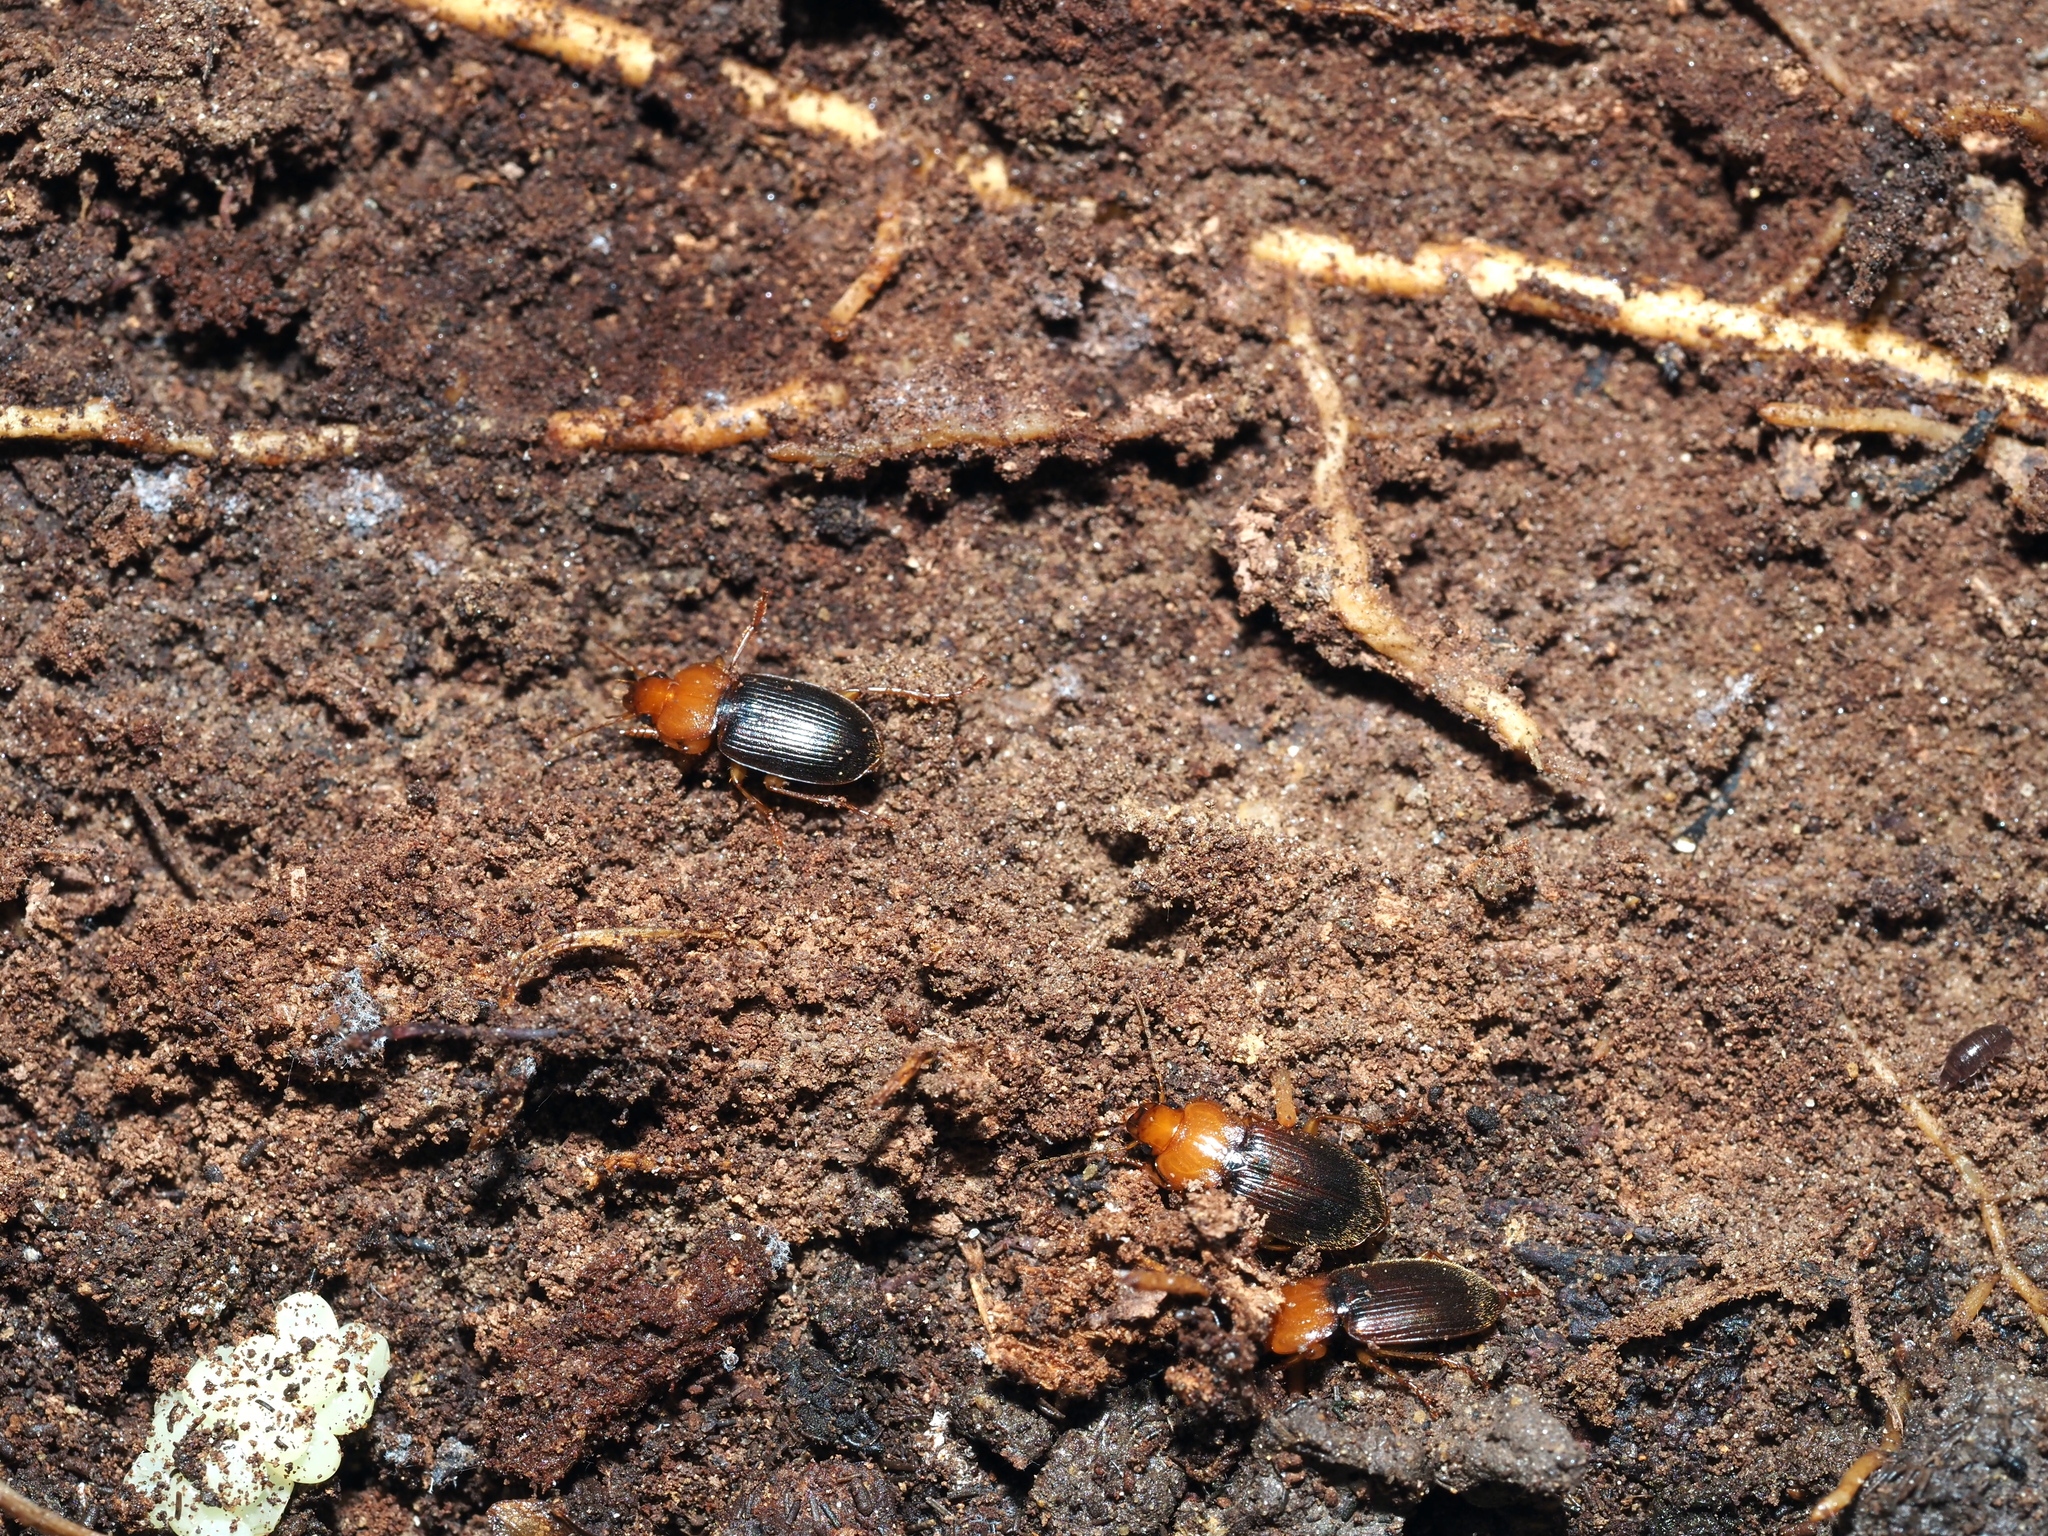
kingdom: Animalia
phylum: Arthropoda
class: Insecta
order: Coleoptera
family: Carabidae
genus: Amphasia
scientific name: Amphasia interstitialis
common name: Red-headed ground beetle
